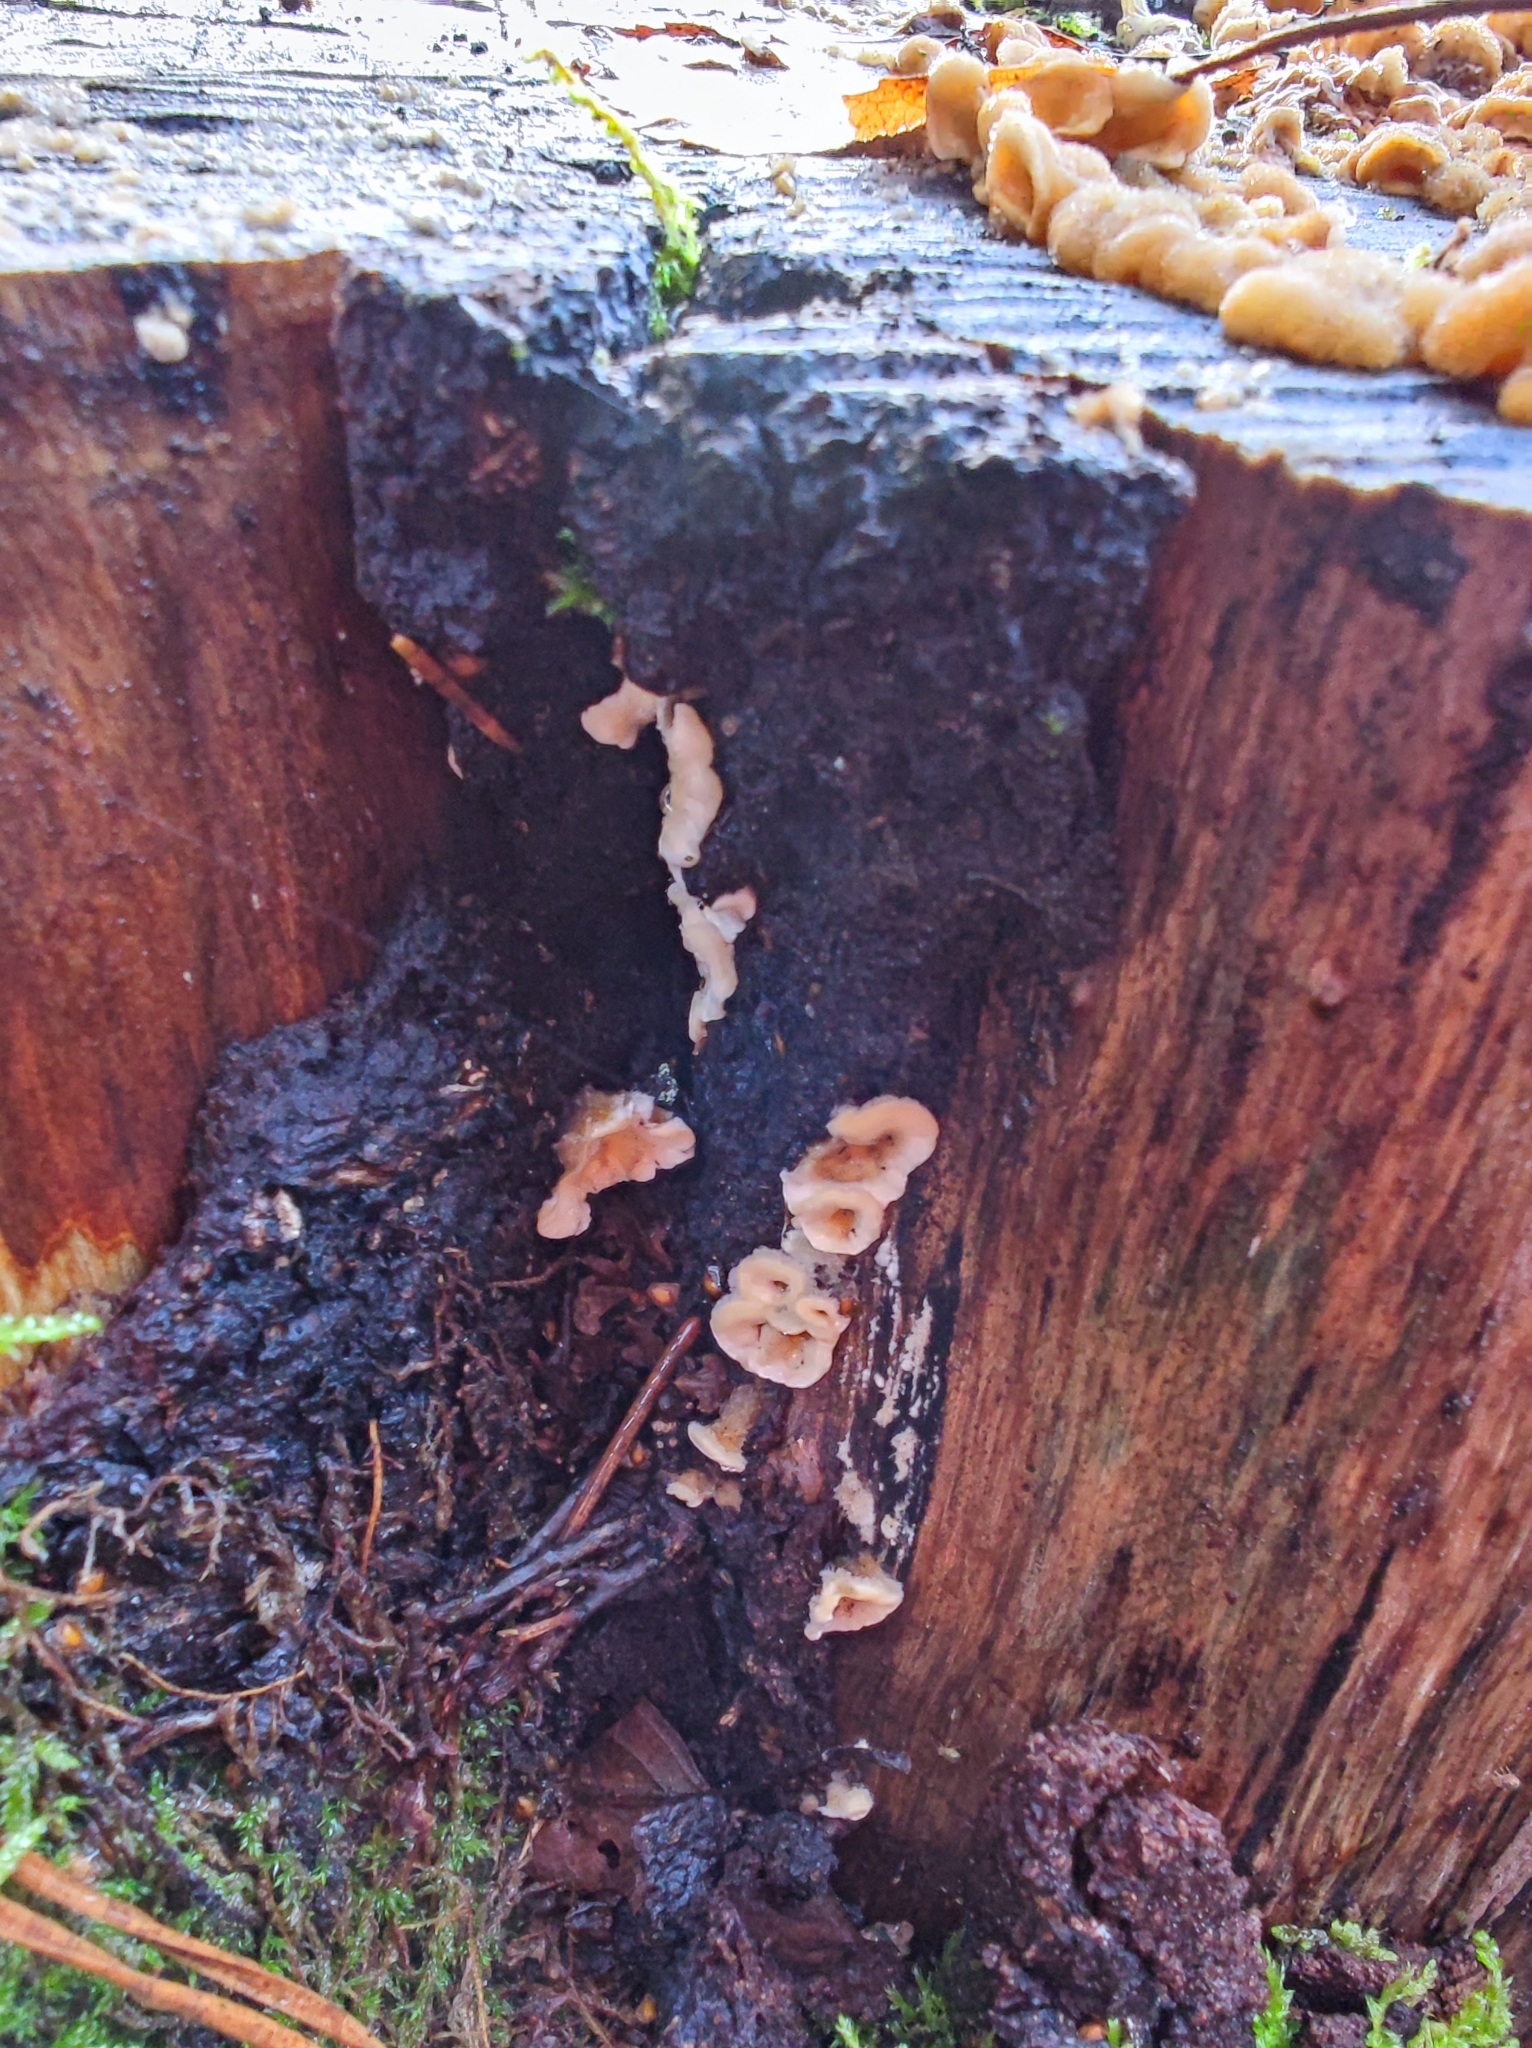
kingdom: Fungi
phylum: Basidiomycota
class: Agaricomycetes
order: Russulales
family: Stereaceae
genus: Stereum
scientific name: Stereum hirsutum
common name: Hairy curtain crust
